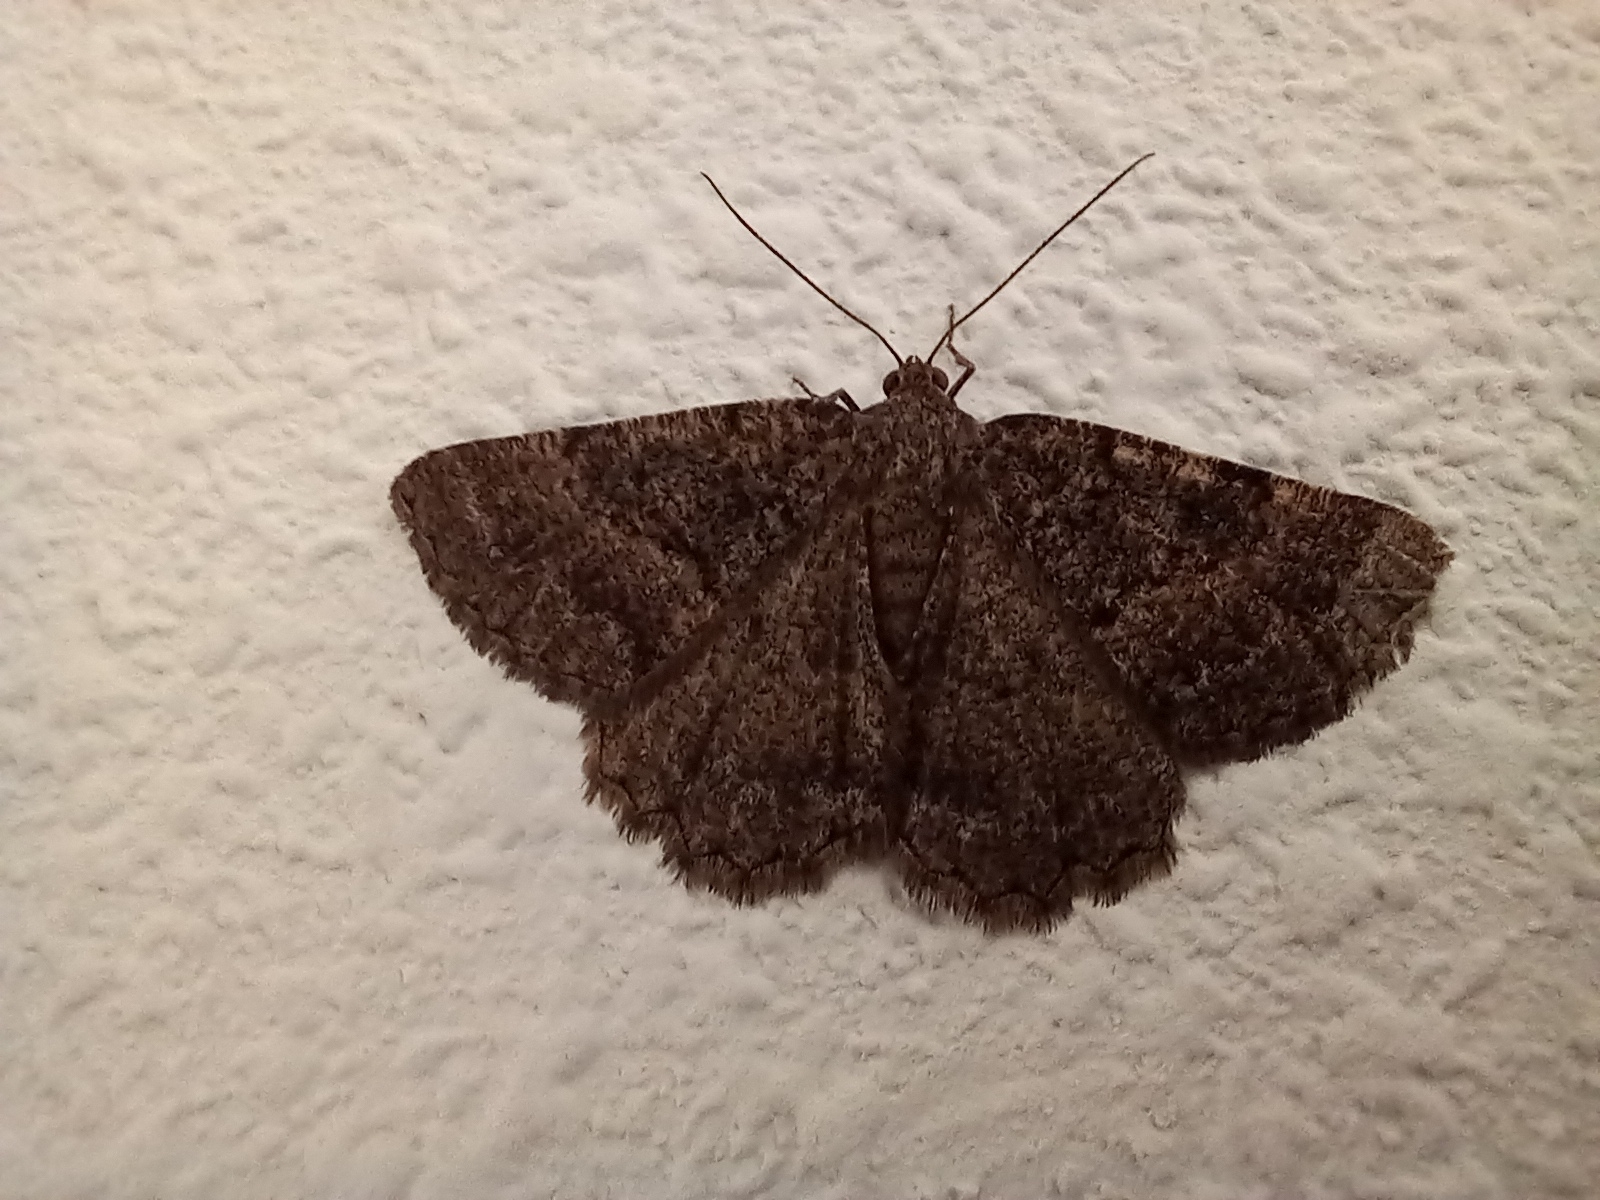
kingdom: Animalia
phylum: Arthropoda
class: Insecta
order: Lepidoptera
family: Geometridae
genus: Selidosema
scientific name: Selidosema taeniolaria
